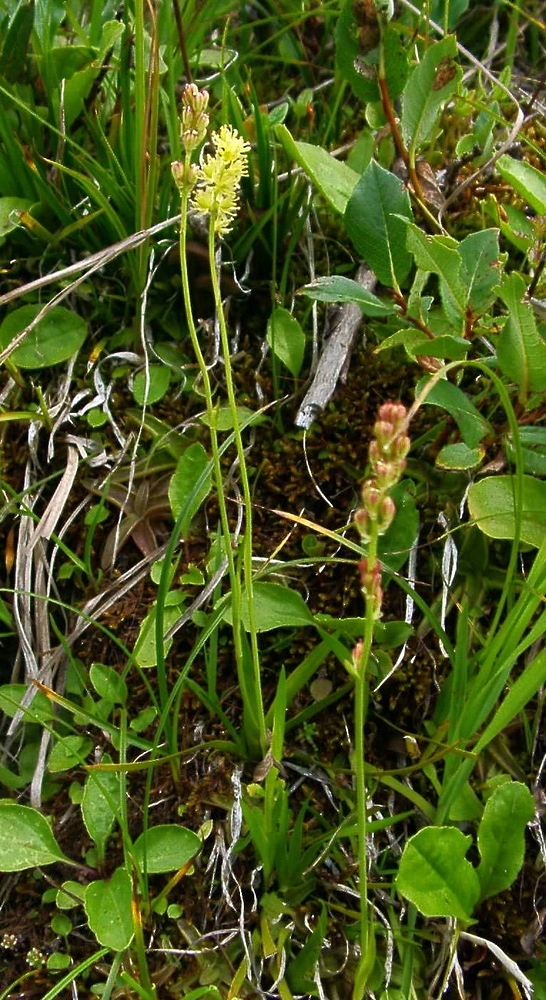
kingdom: Plantae
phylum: Tracheophyta
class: Liliopsida
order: Alismatales
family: Tofieldiaceae
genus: Tofieldia
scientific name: Tofieldia calyculata
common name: German-asphodel
